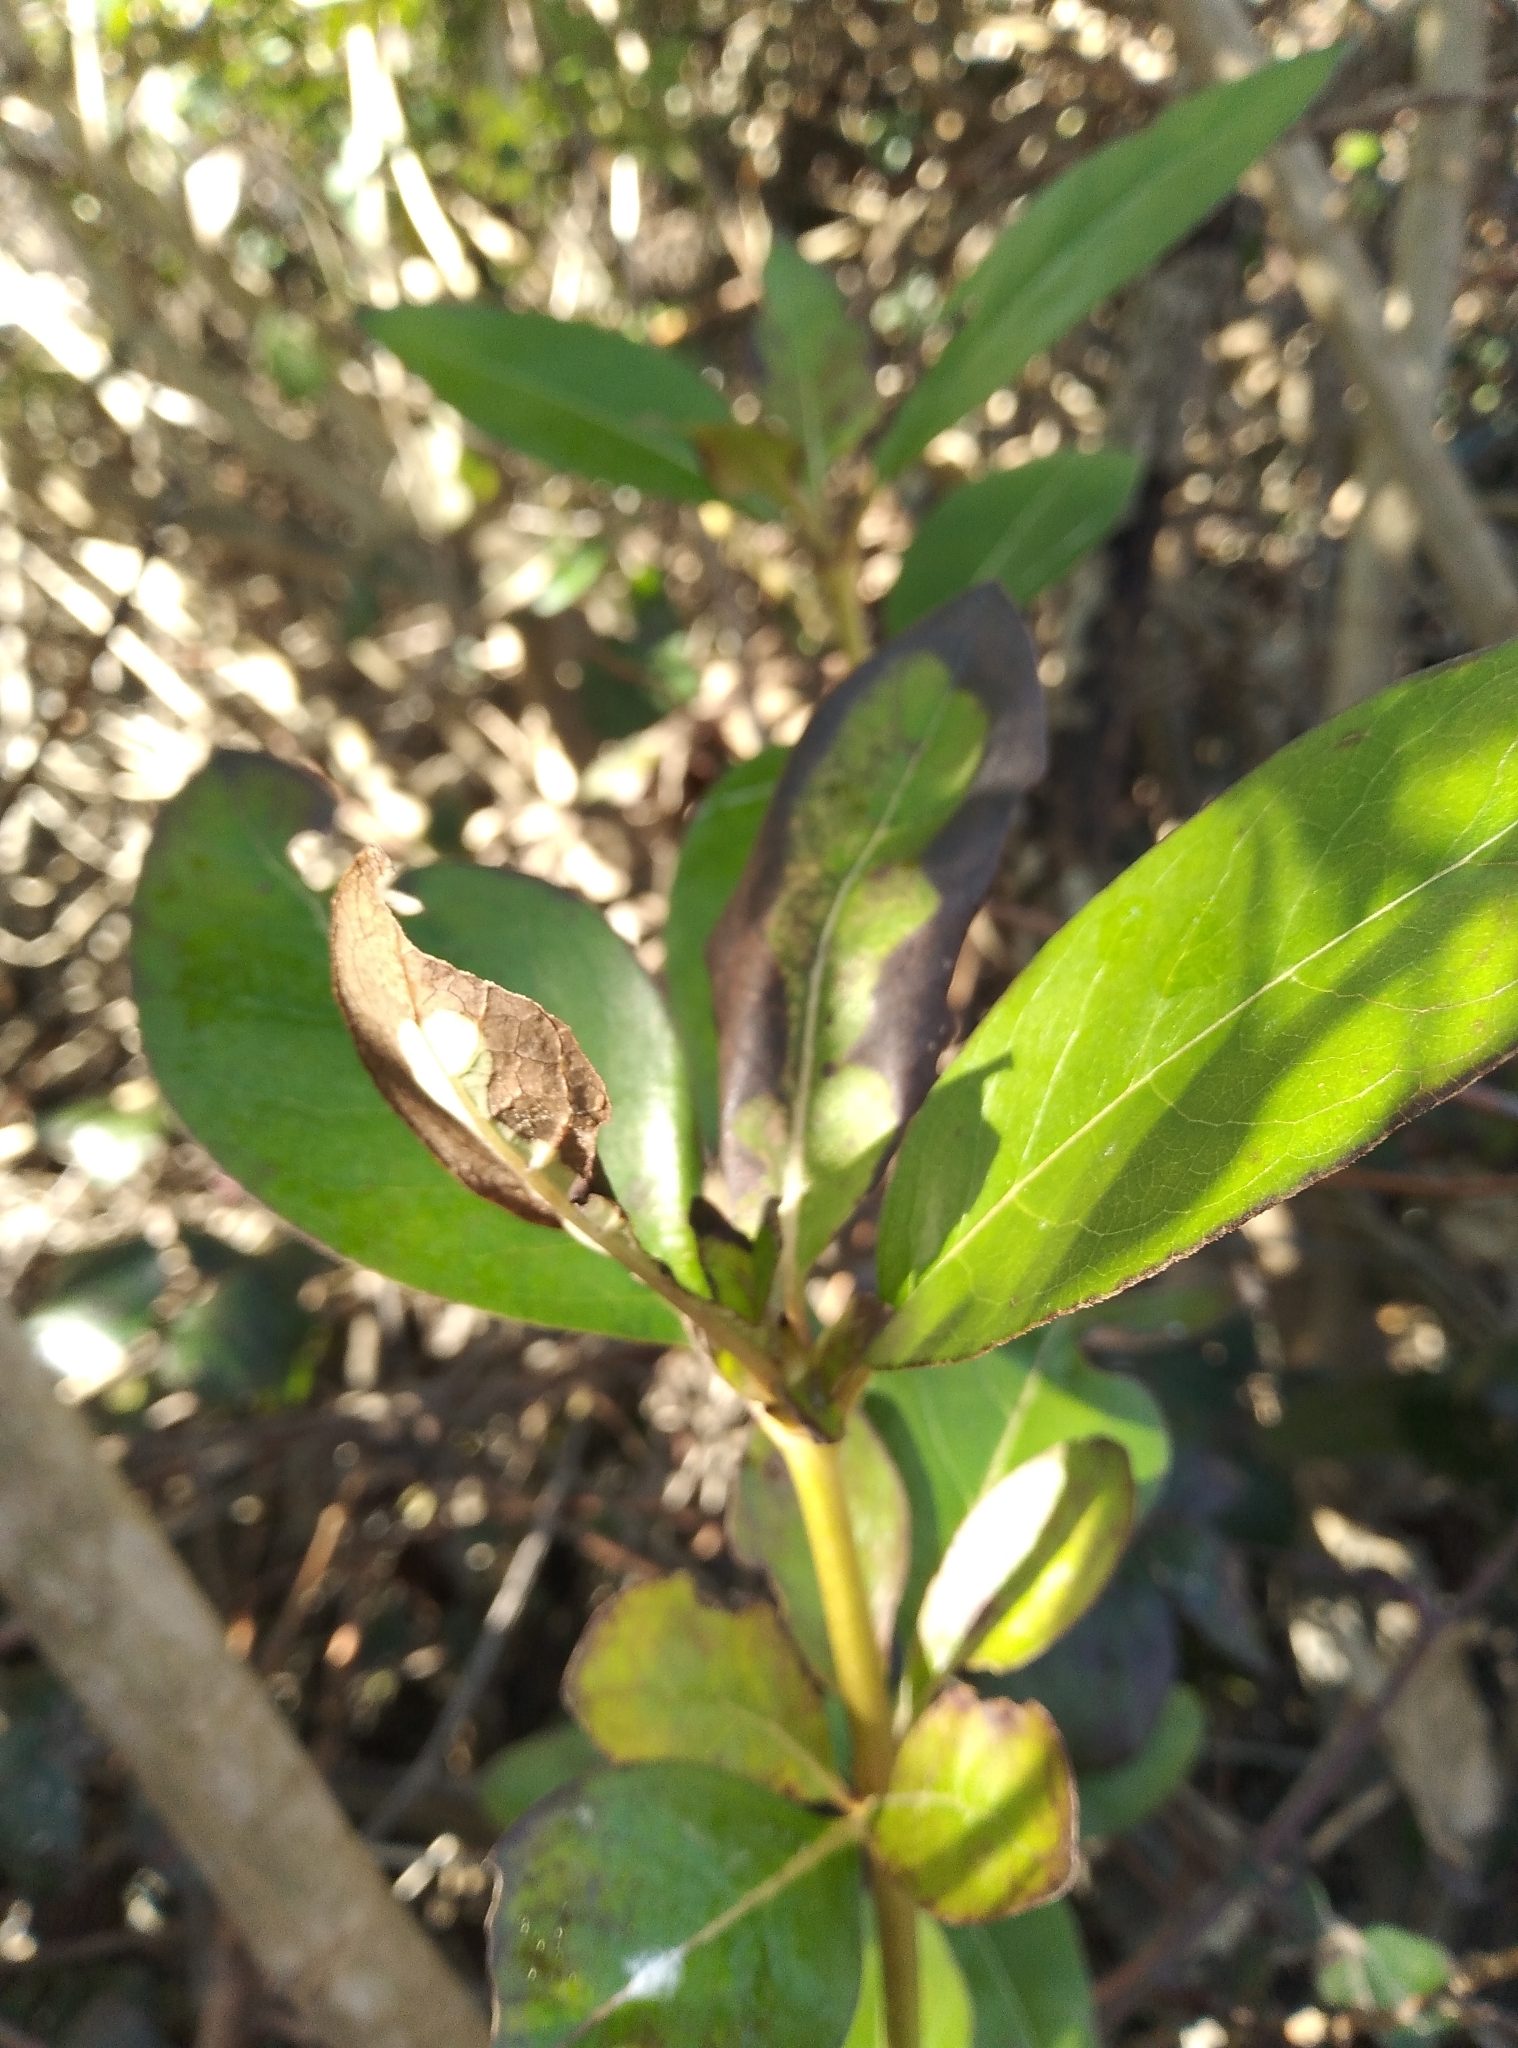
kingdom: Plantae
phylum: Tracheophyta
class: Magnoliopsida
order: Gentianales
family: Rubiaceae
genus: Coprosma
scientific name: Coprosma robusta
